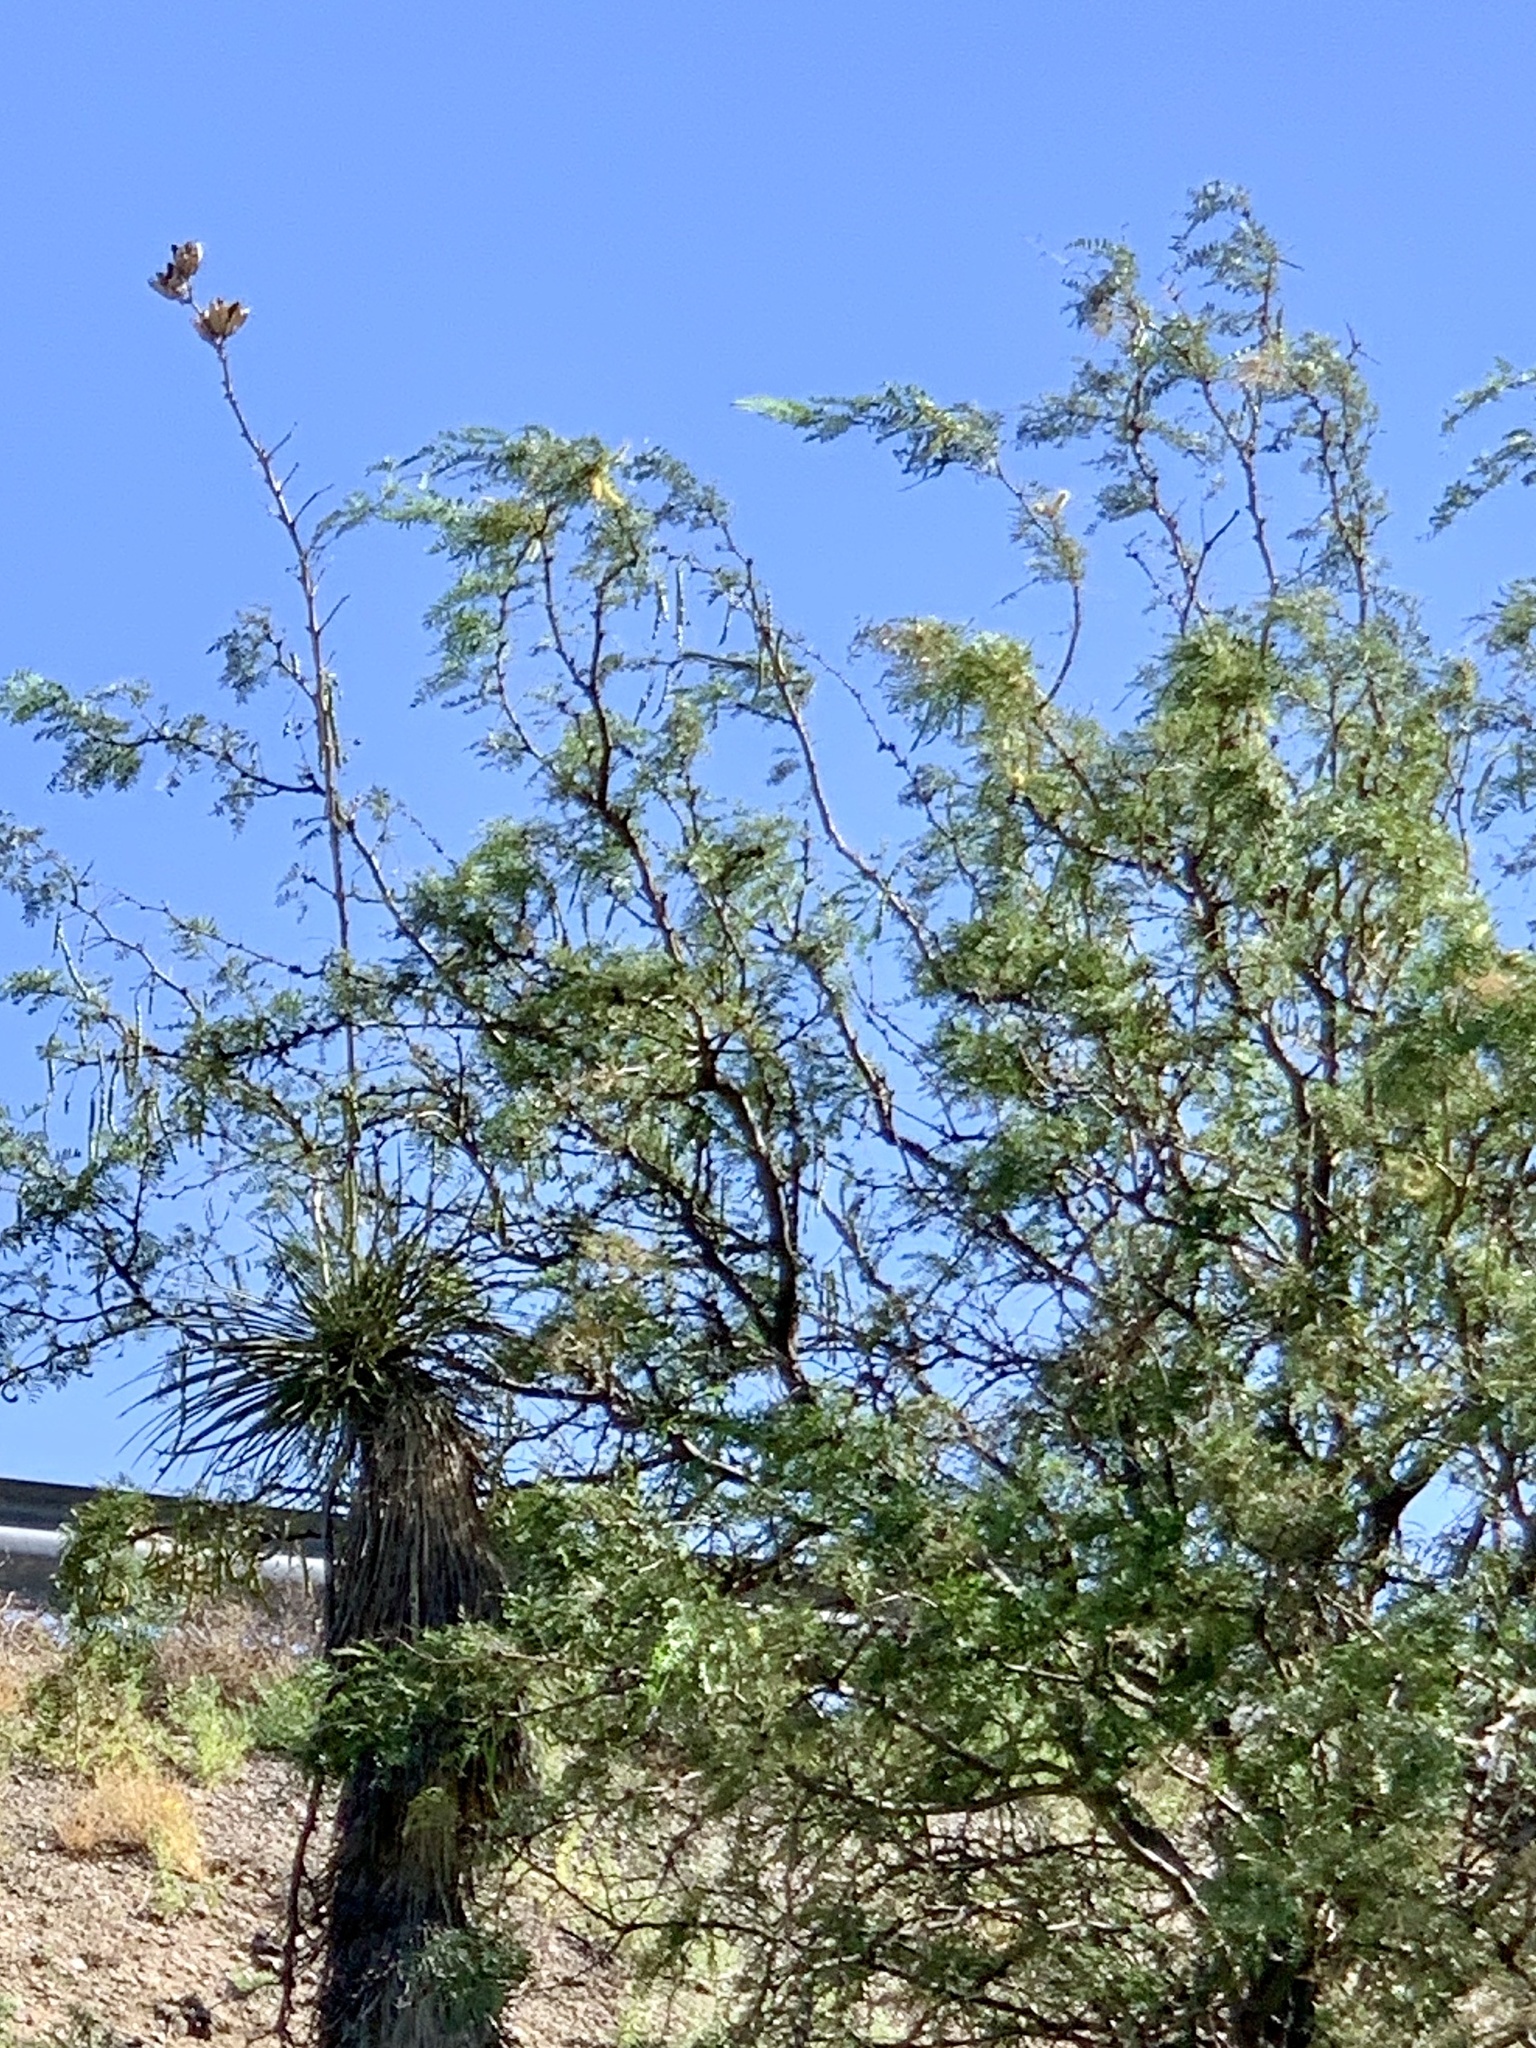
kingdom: Plantae
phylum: Tracheophyta
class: Magnoliopsida
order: Fabales
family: Fabaceae
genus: Prosopis
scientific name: Prosopis glandulosa
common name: Honey mesquite
